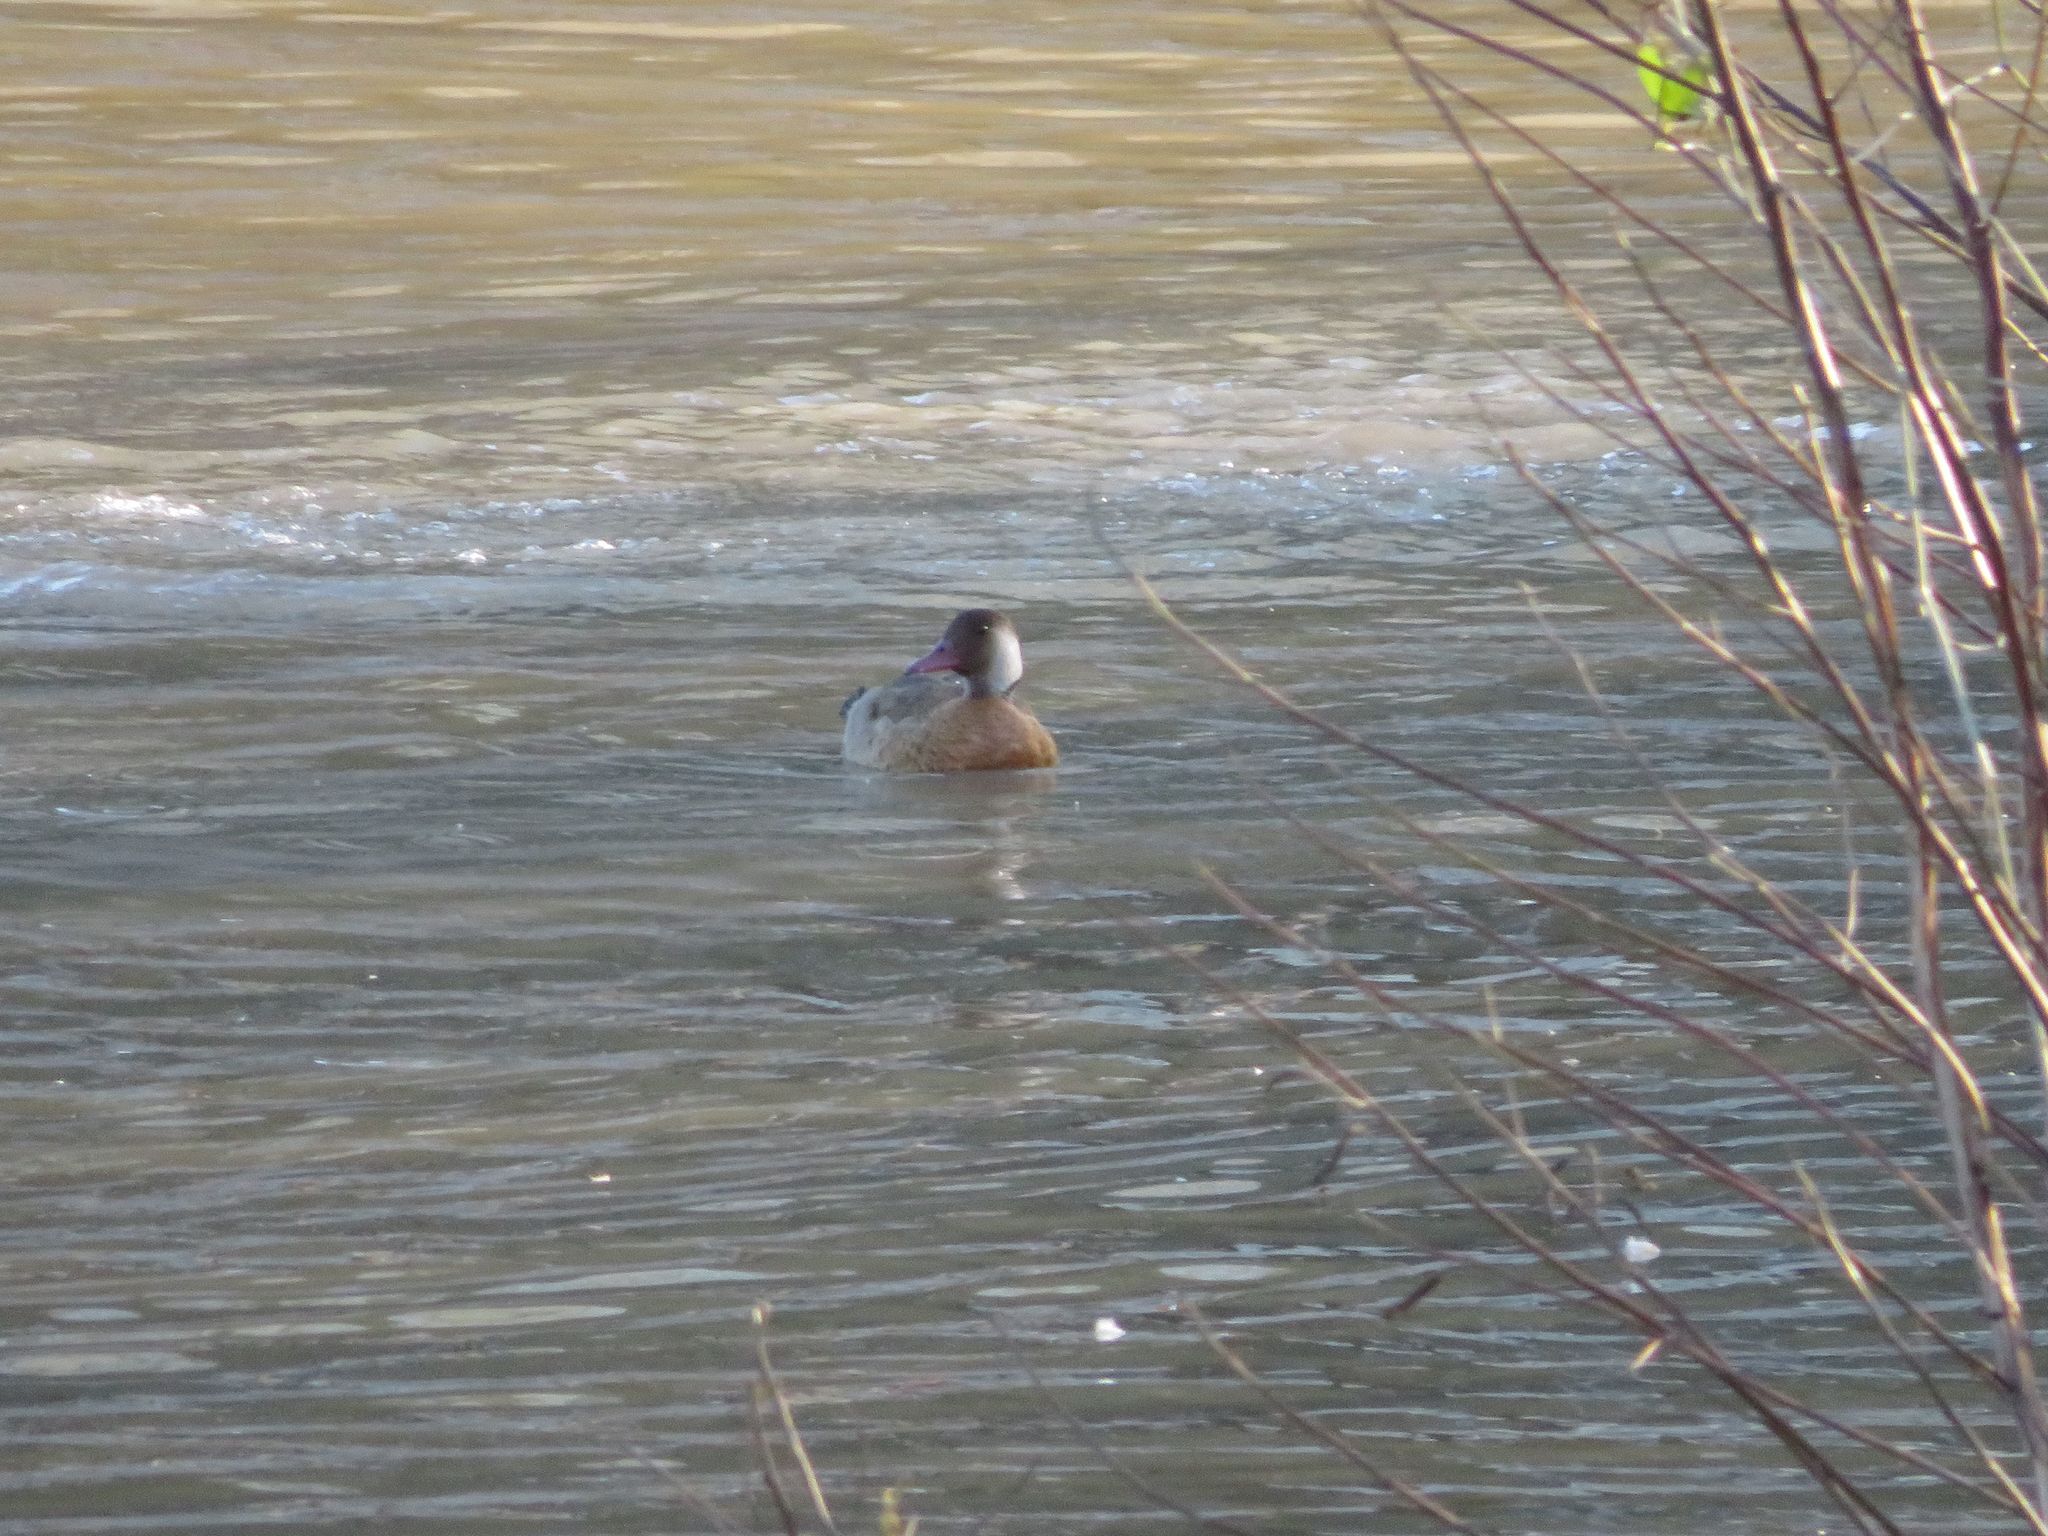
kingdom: Animalia
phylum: Chordata
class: Aves
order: Anseriformes
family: Anatidae
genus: Amazonetta
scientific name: Amazonetta brasiliensis
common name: Brazilian teal
